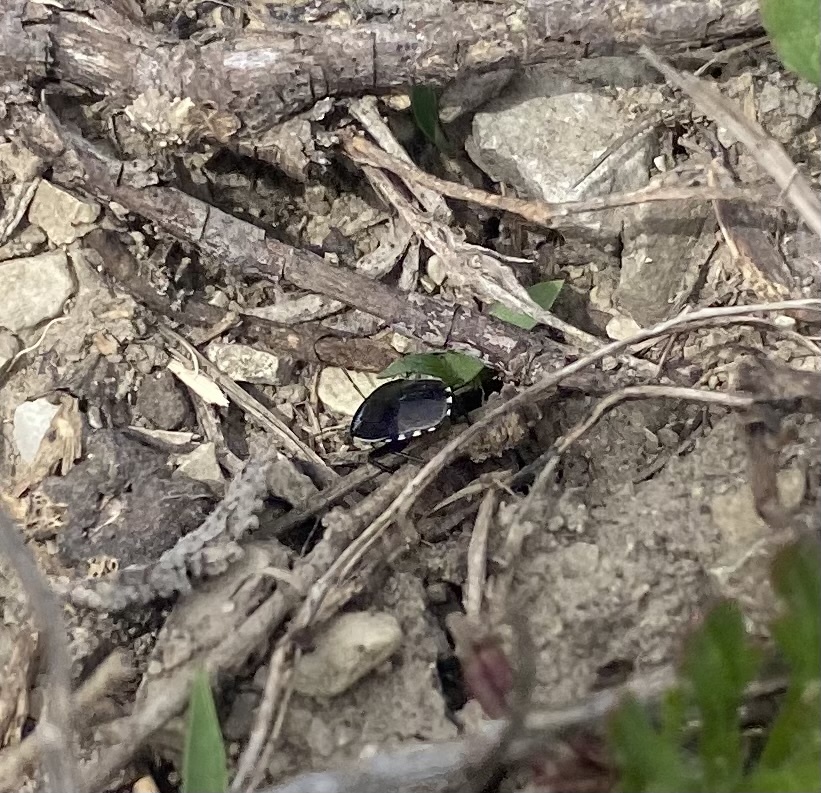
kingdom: Animalia
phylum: Arthropoda
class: Insecta
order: Hemiptera
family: Cydnidae
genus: Canthophorus
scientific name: Canthophorus melanopterus
